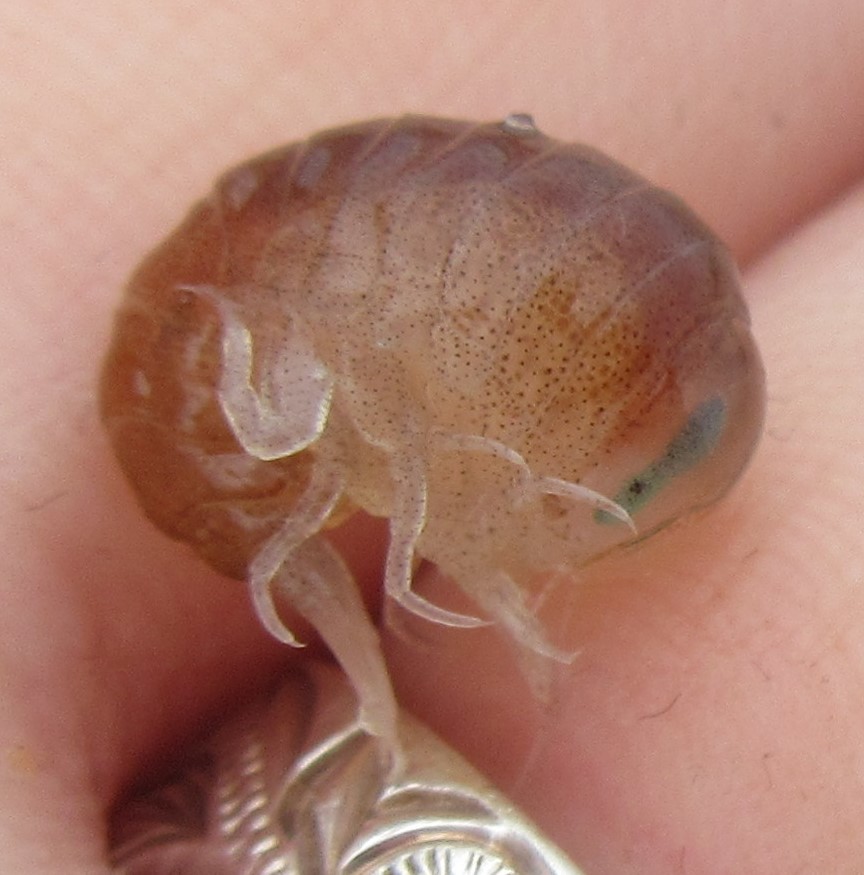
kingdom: Animalia
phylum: Arthropoda
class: Malacostraca
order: Amphipoda
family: Hyperiidae
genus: Hyperia
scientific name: Hyperia galba
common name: Big-eye amphipod
